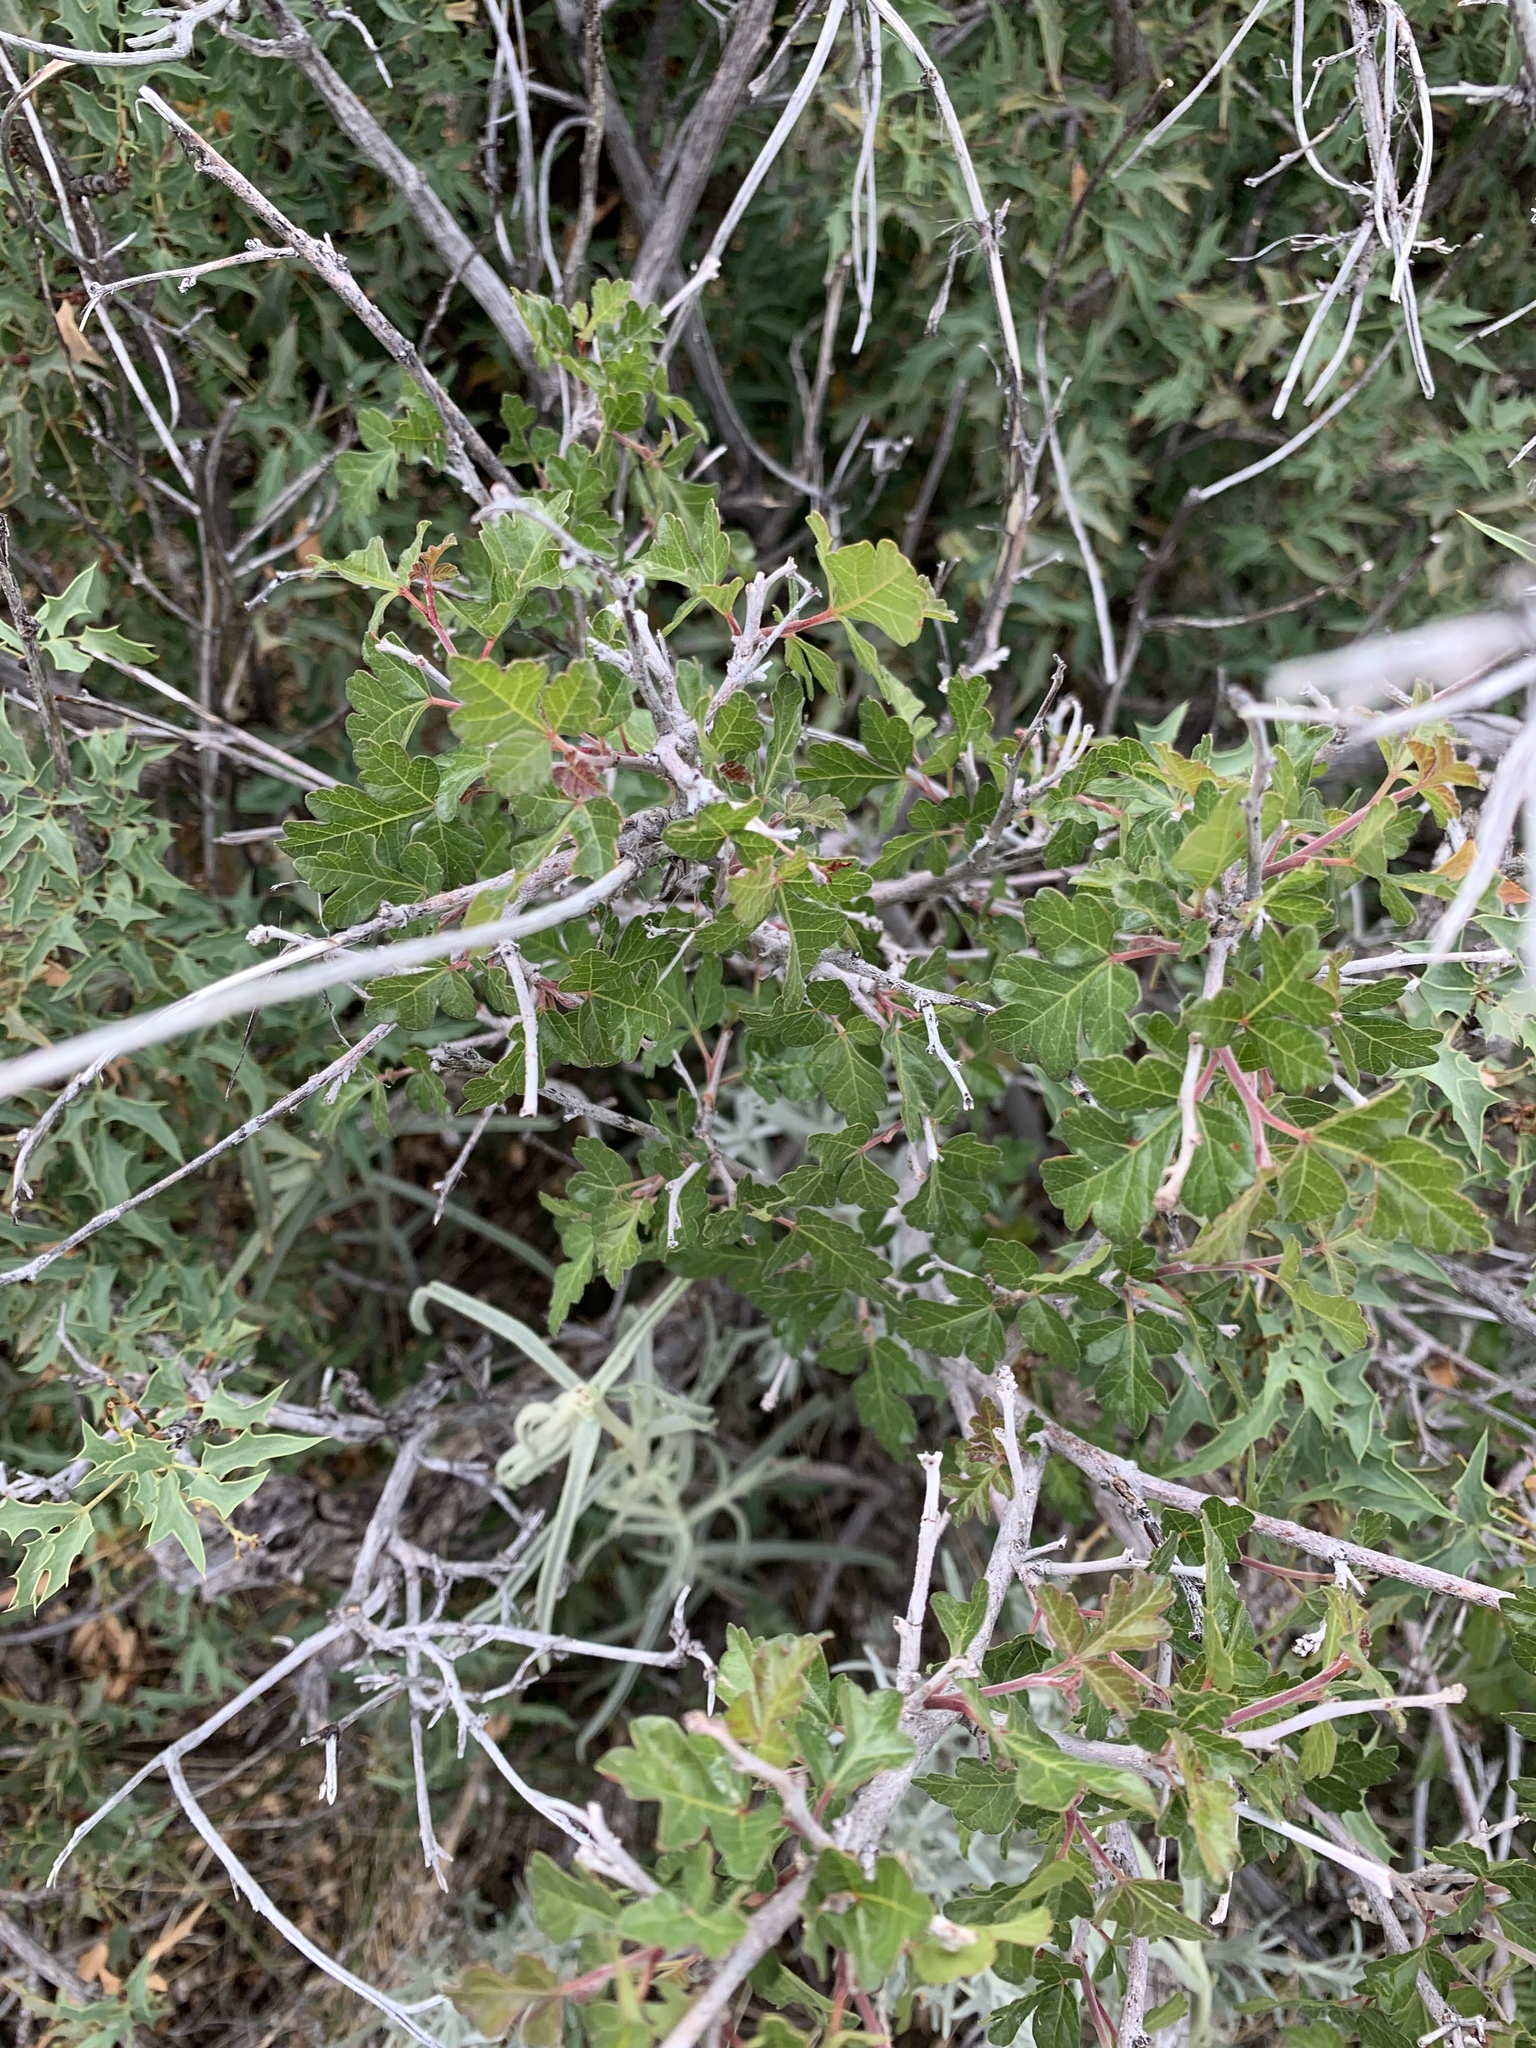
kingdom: Plantae
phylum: Tracheophyta
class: Magnoliopsida
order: Sapindales
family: Anacardiaceae
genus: Rhus
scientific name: Rhus aromatica
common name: Aromatic sumac
